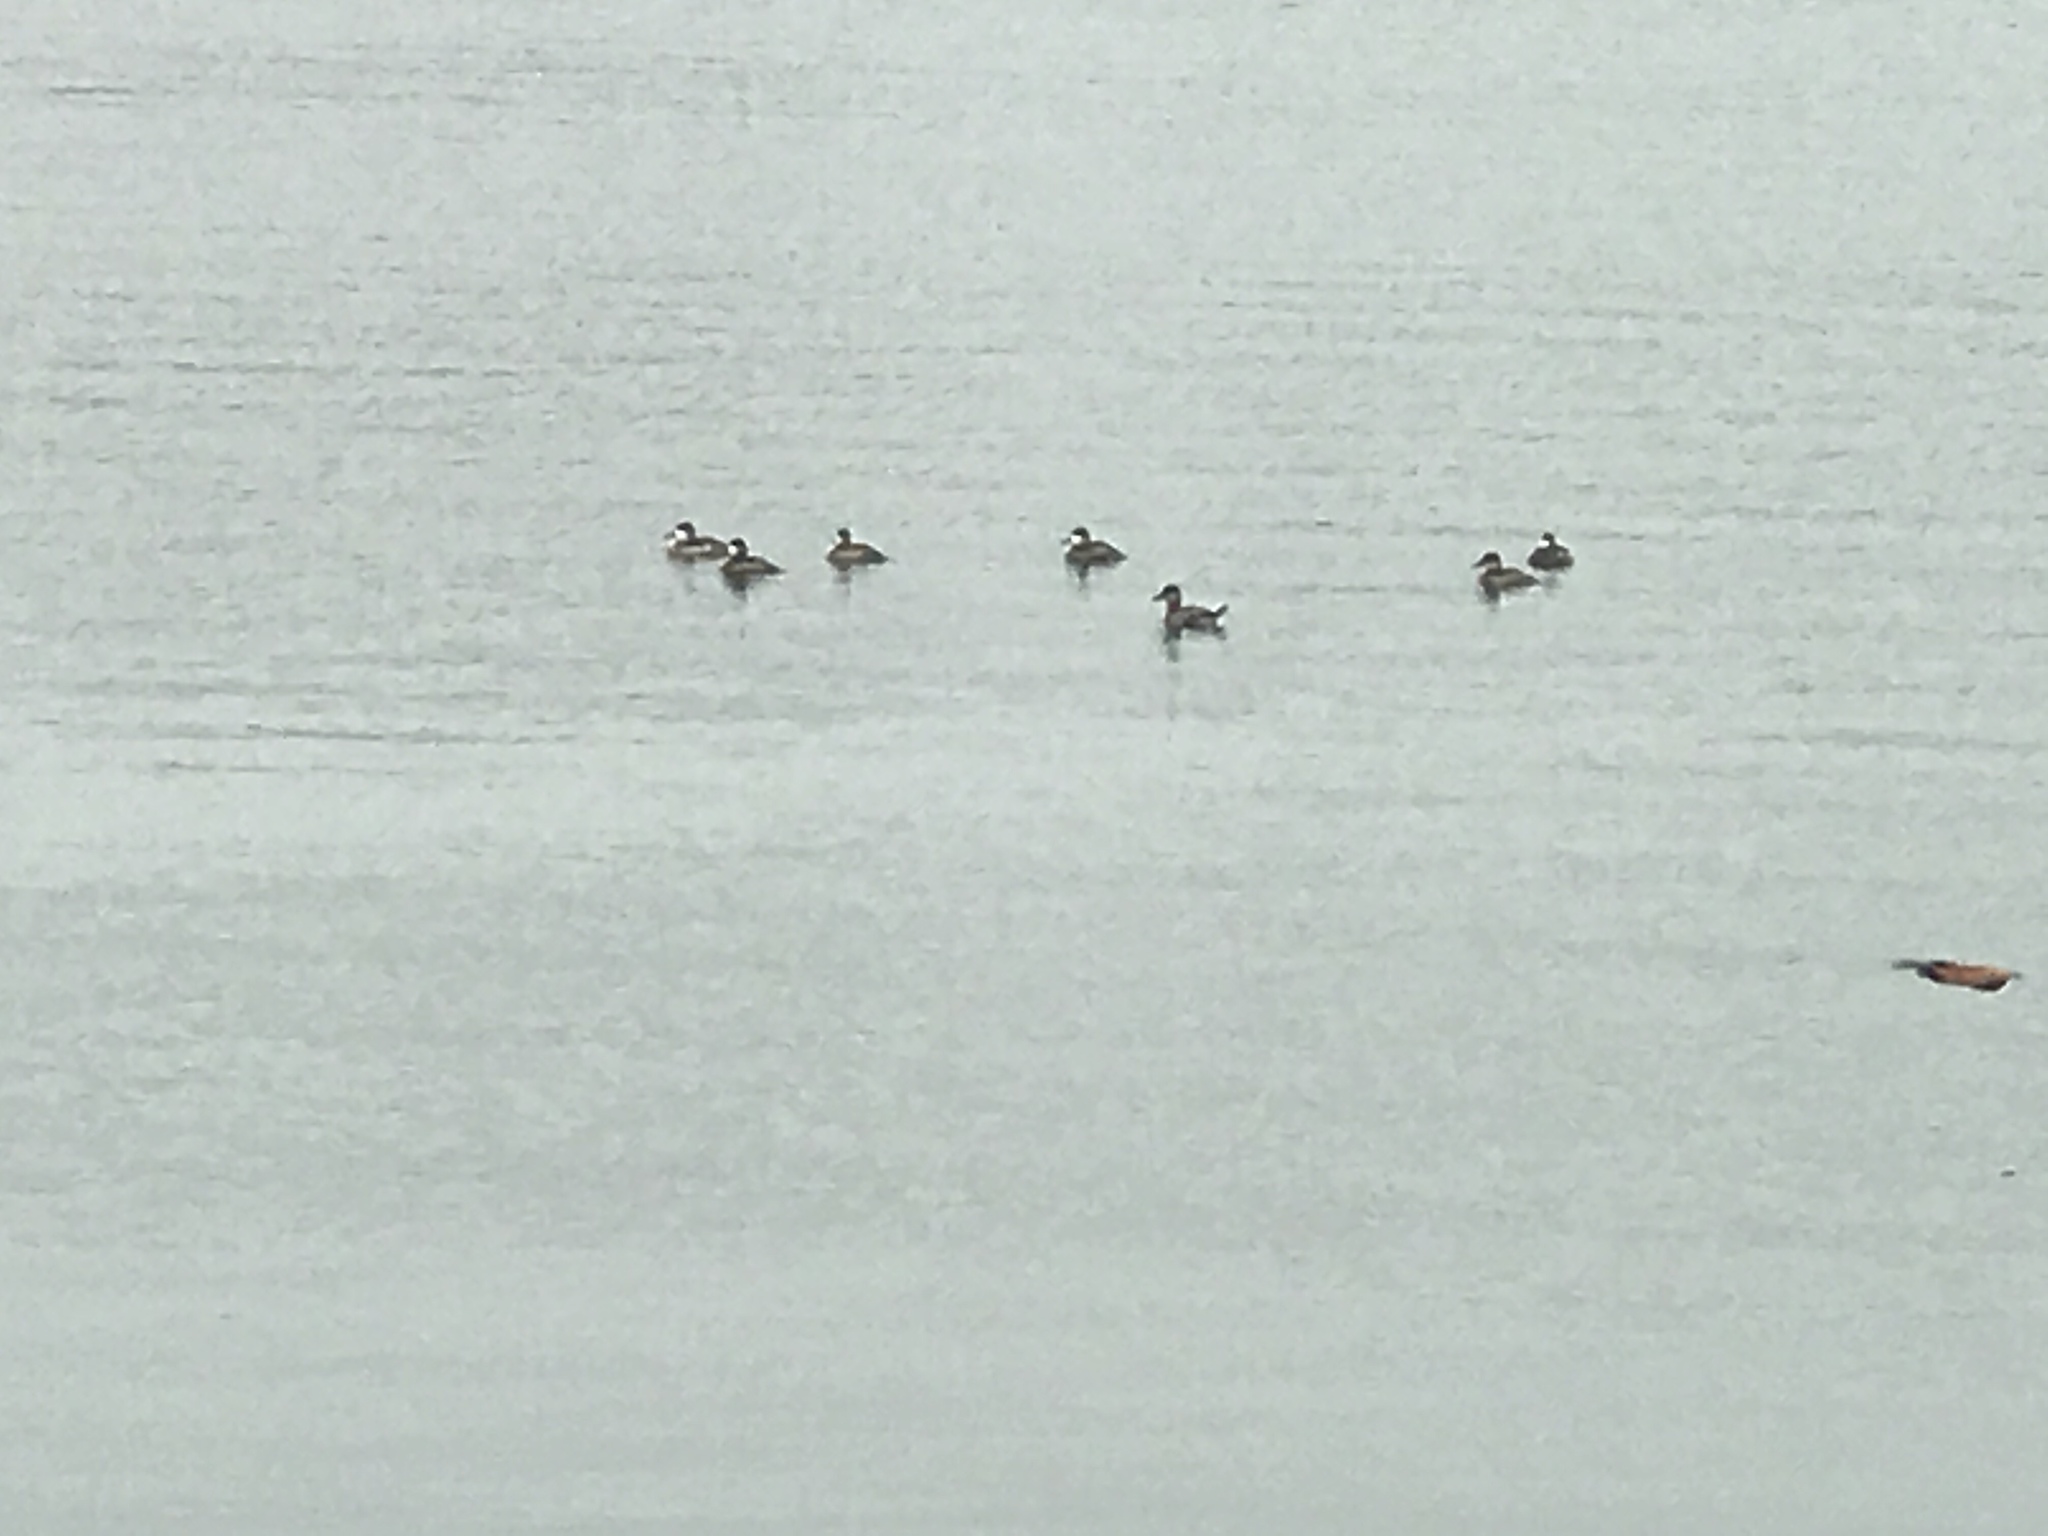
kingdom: Animalia
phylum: Chordata
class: Aves
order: Anseriformes
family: Anatidae
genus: Oxyura
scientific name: Oxyura jamaicensis
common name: Ruddy duck
